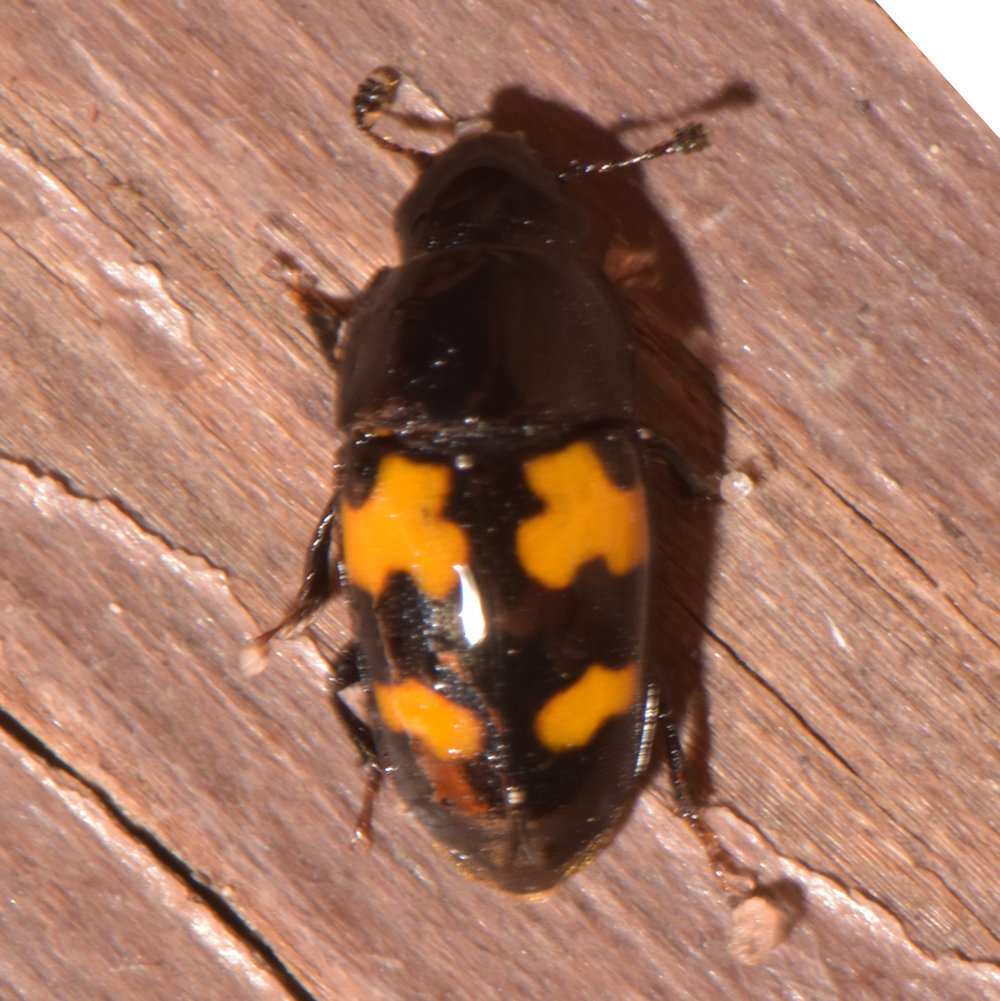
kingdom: Animalia
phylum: Arthropoda
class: Insecta
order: Coleoptera
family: Nitidulidae
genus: Glischrochilus
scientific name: Glischrochilus fasciatus
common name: Picnic beetle
